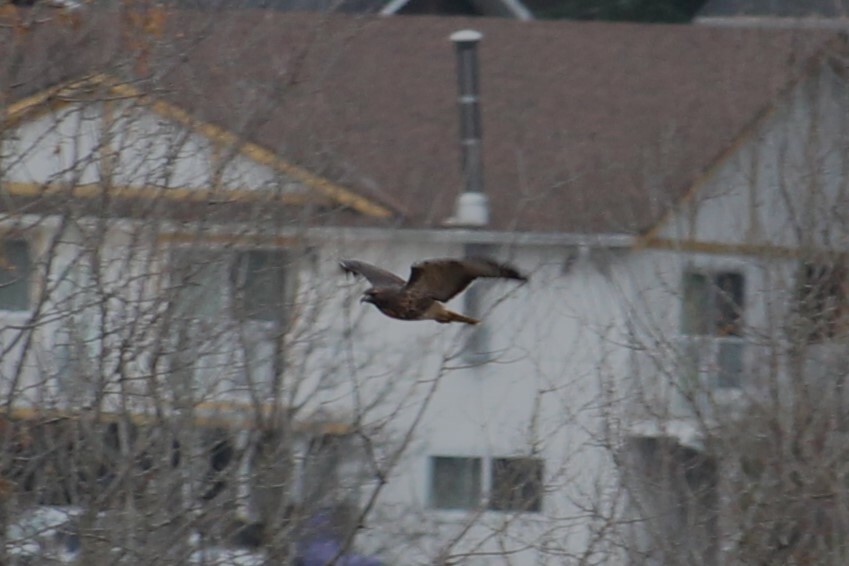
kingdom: Animalia
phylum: Chordata
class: Aves
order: Accipitriformes
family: Accipitridae
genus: Buteo
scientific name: Buteo jamaicensis
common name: Red-tailed hawk
